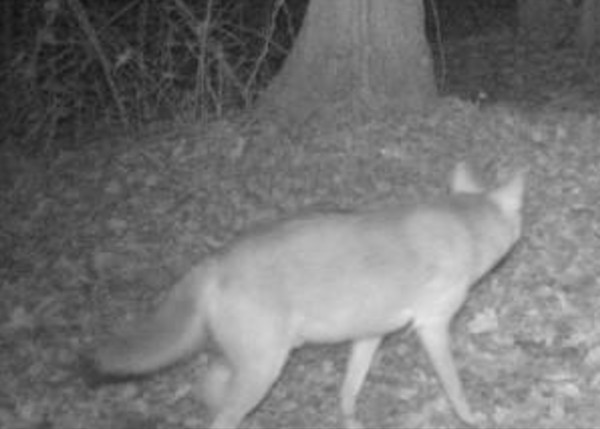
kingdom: Animalia
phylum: Chordata
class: Mammalia
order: Carnivora
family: Canidae
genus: Canis
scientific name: Canis latrans
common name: Coyote
